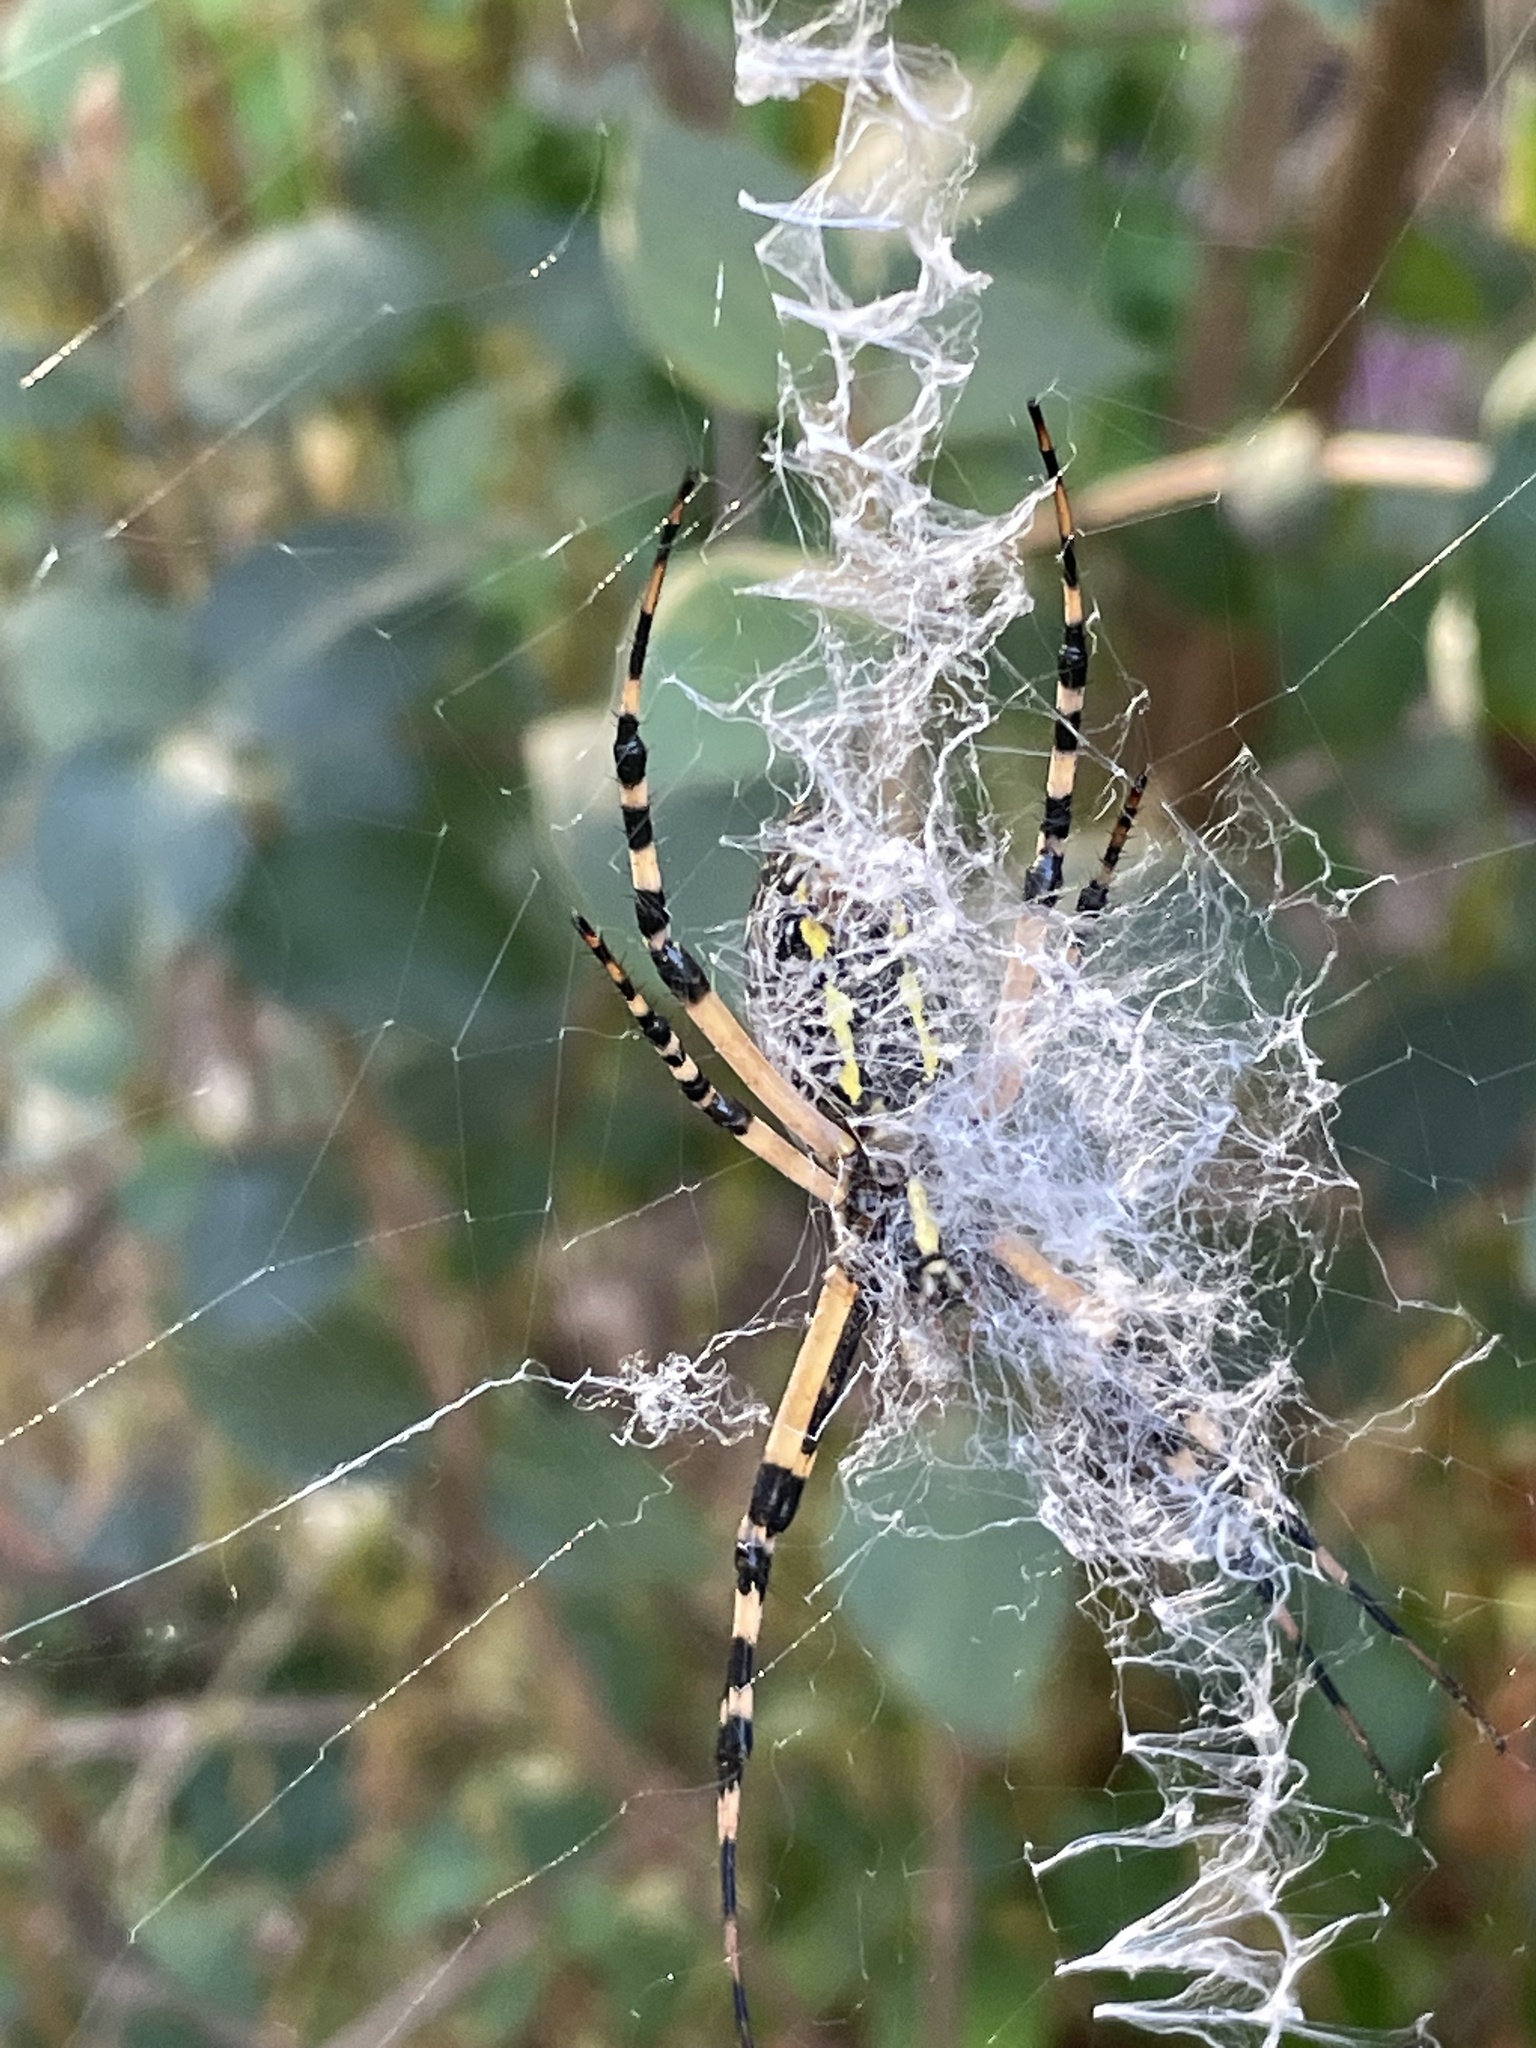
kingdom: Animalia
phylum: Arthropoda
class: Arachnida
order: Araneae
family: Araneidae
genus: Argiope
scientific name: Argiope aurantia
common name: Orb weavers
